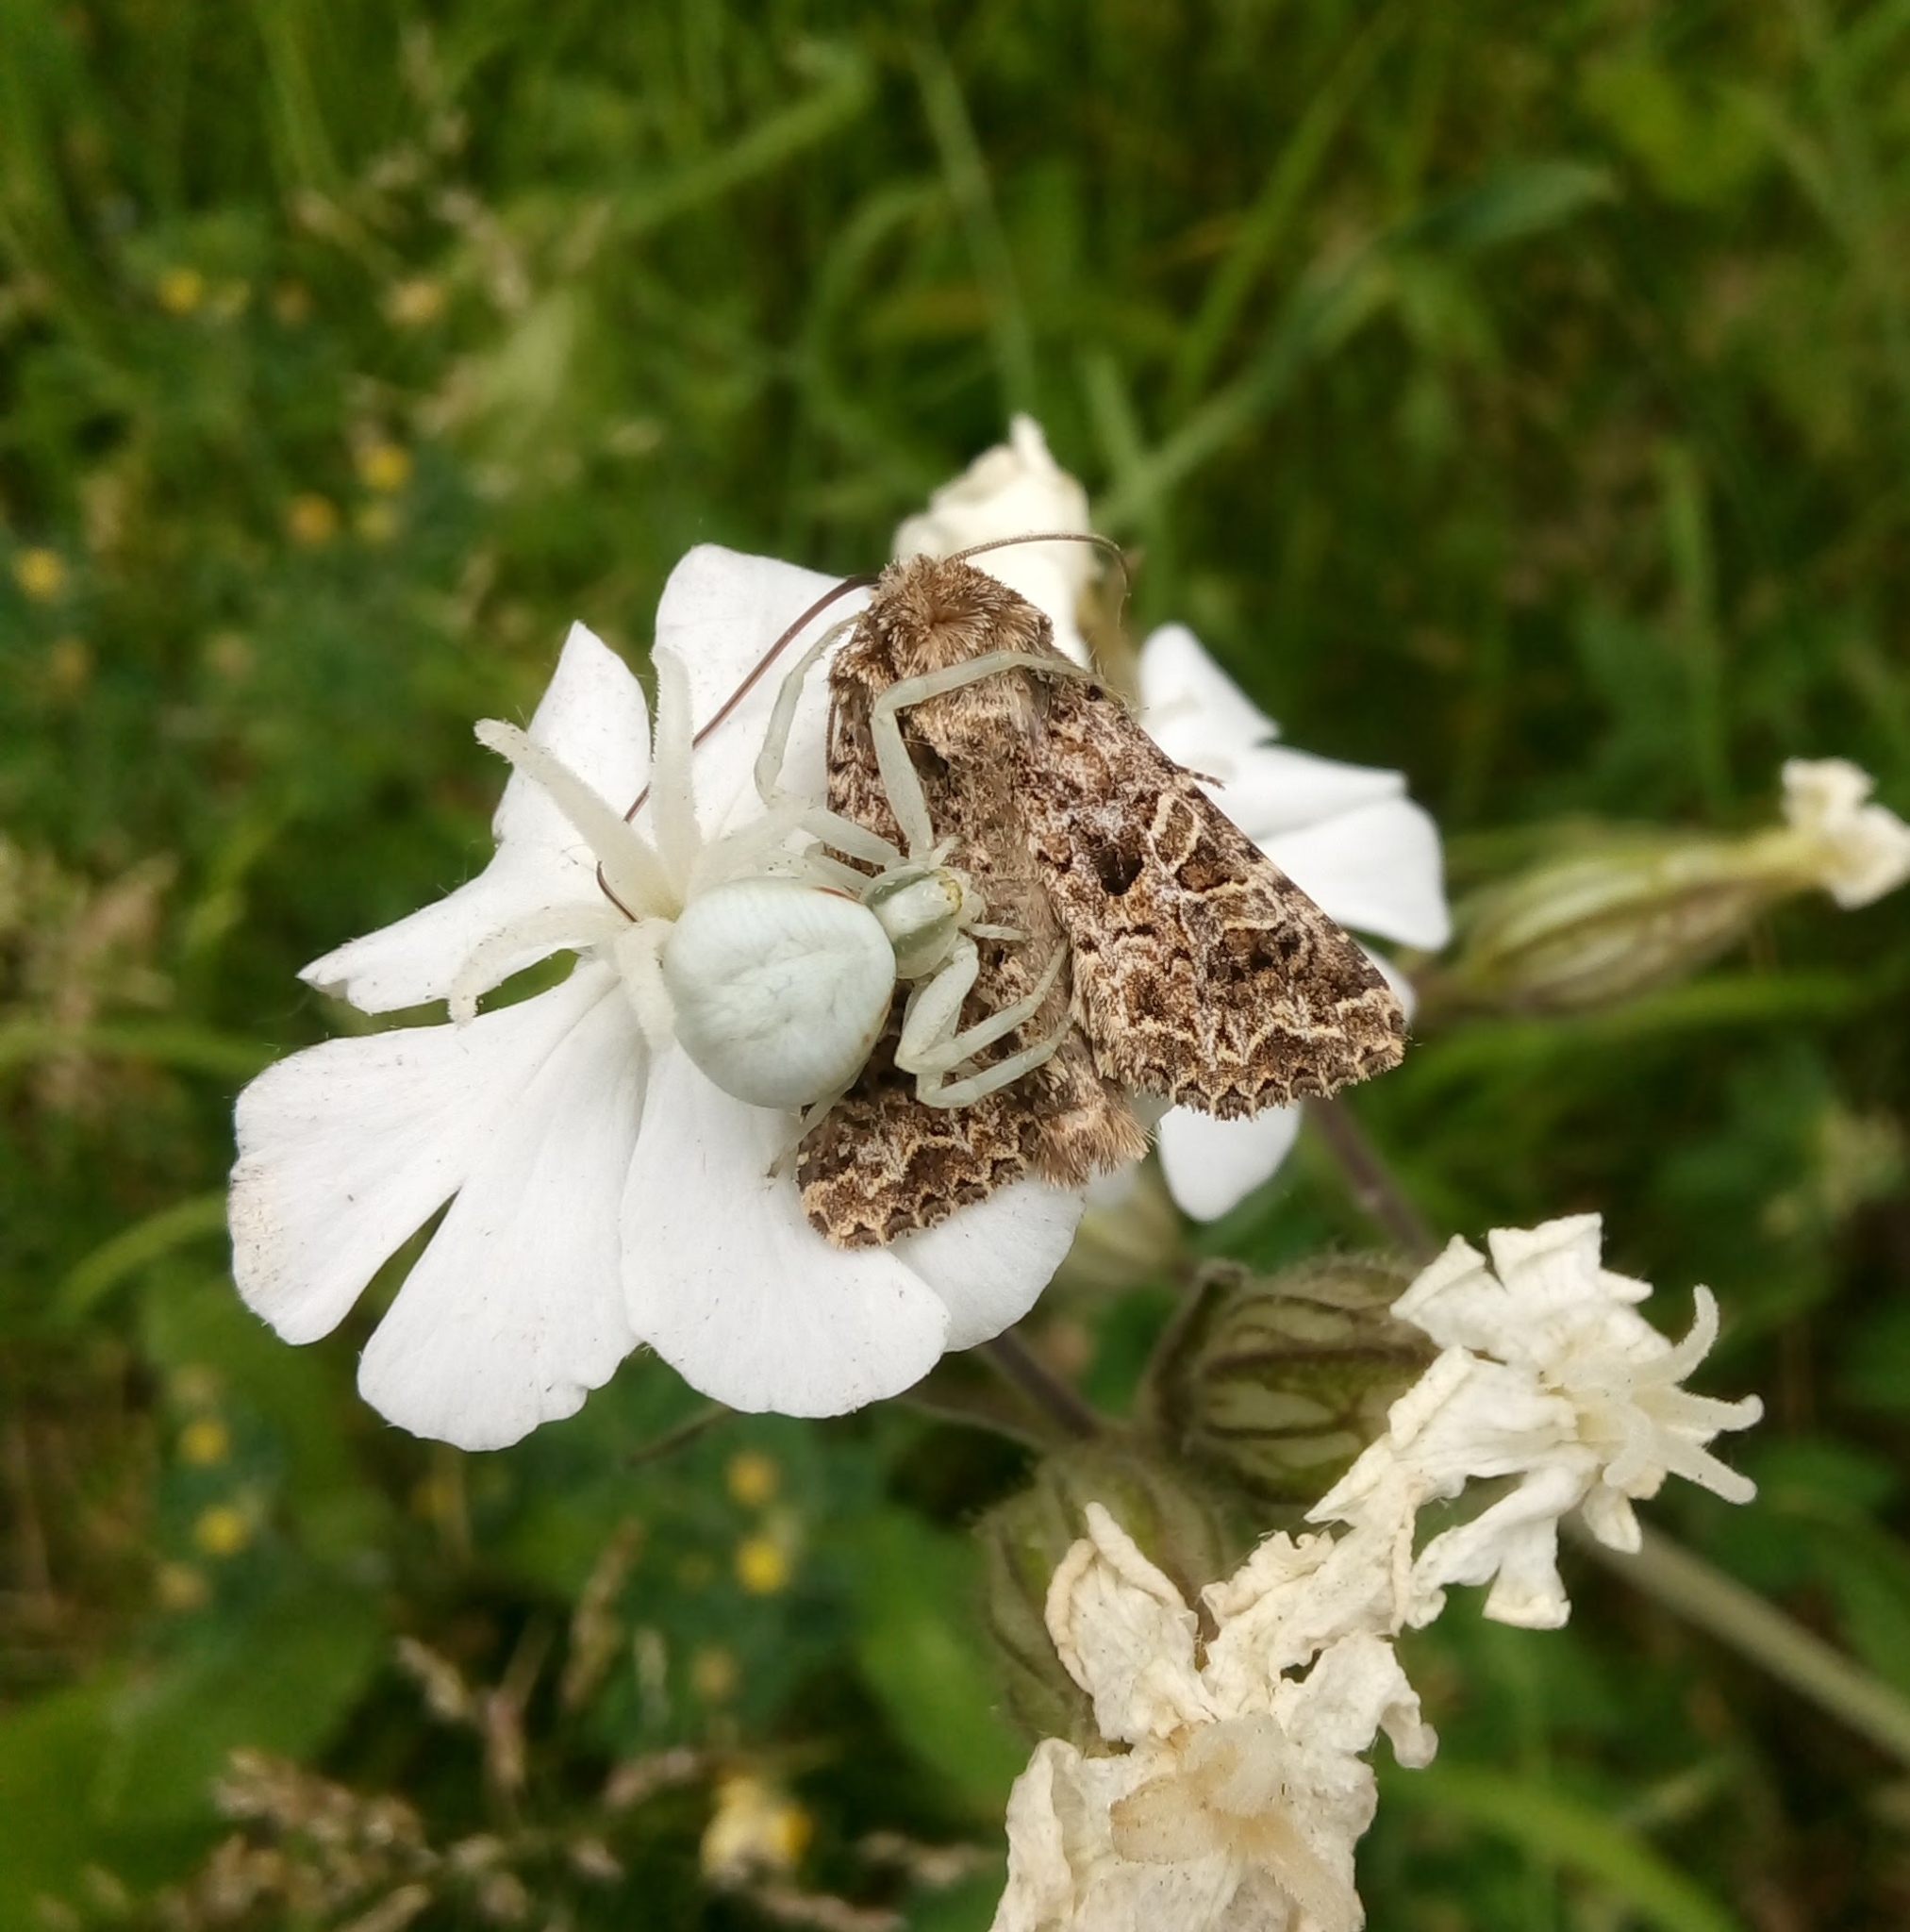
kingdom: Animalia
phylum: Arthropoda
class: Arachnida
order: Araneae
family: Thomisidae
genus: Misumena
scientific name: Misumena vatia
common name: Goldenrod crab spider
